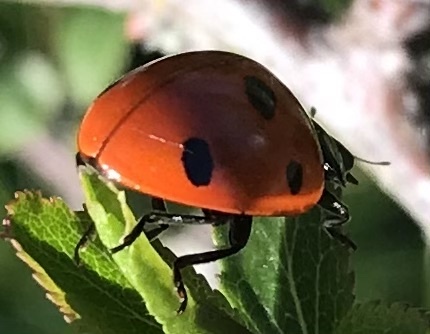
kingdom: Animalia
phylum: Arthropoda
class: Insecta
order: Coleoptera
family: Coccinellidae
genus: Coccinella
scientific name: Coccinella septempunctata
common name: Sevenspotted lady beetle
